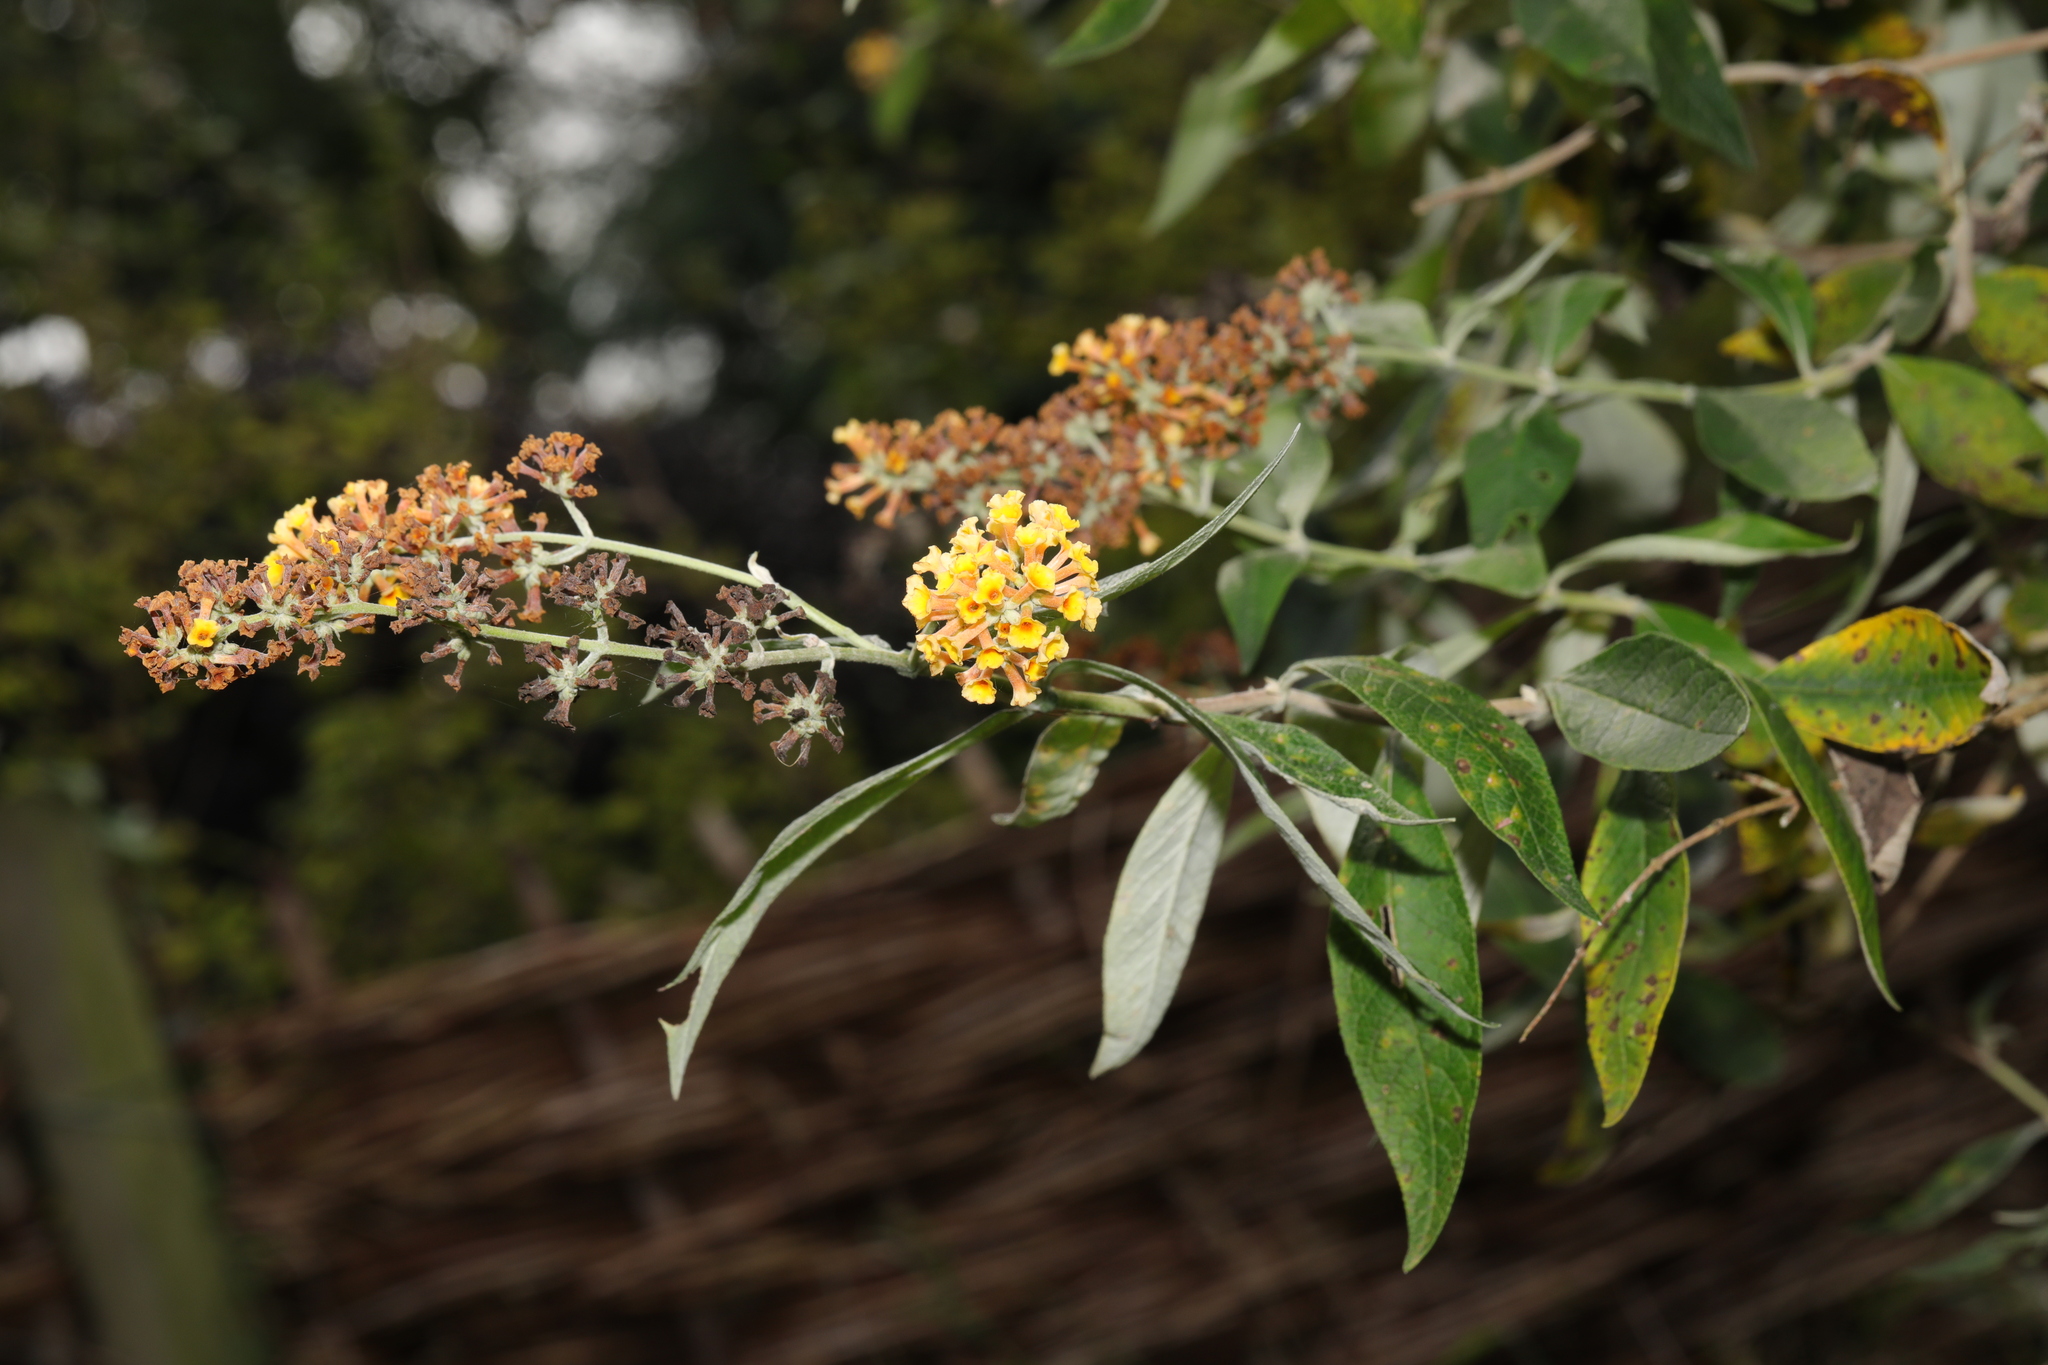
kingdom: Plantae
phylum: Tracheophyta
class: Magnoliopsida
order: Lamiales
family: Scrophulariaceae
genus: Buddleja
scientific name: Buddleja weyeriana
